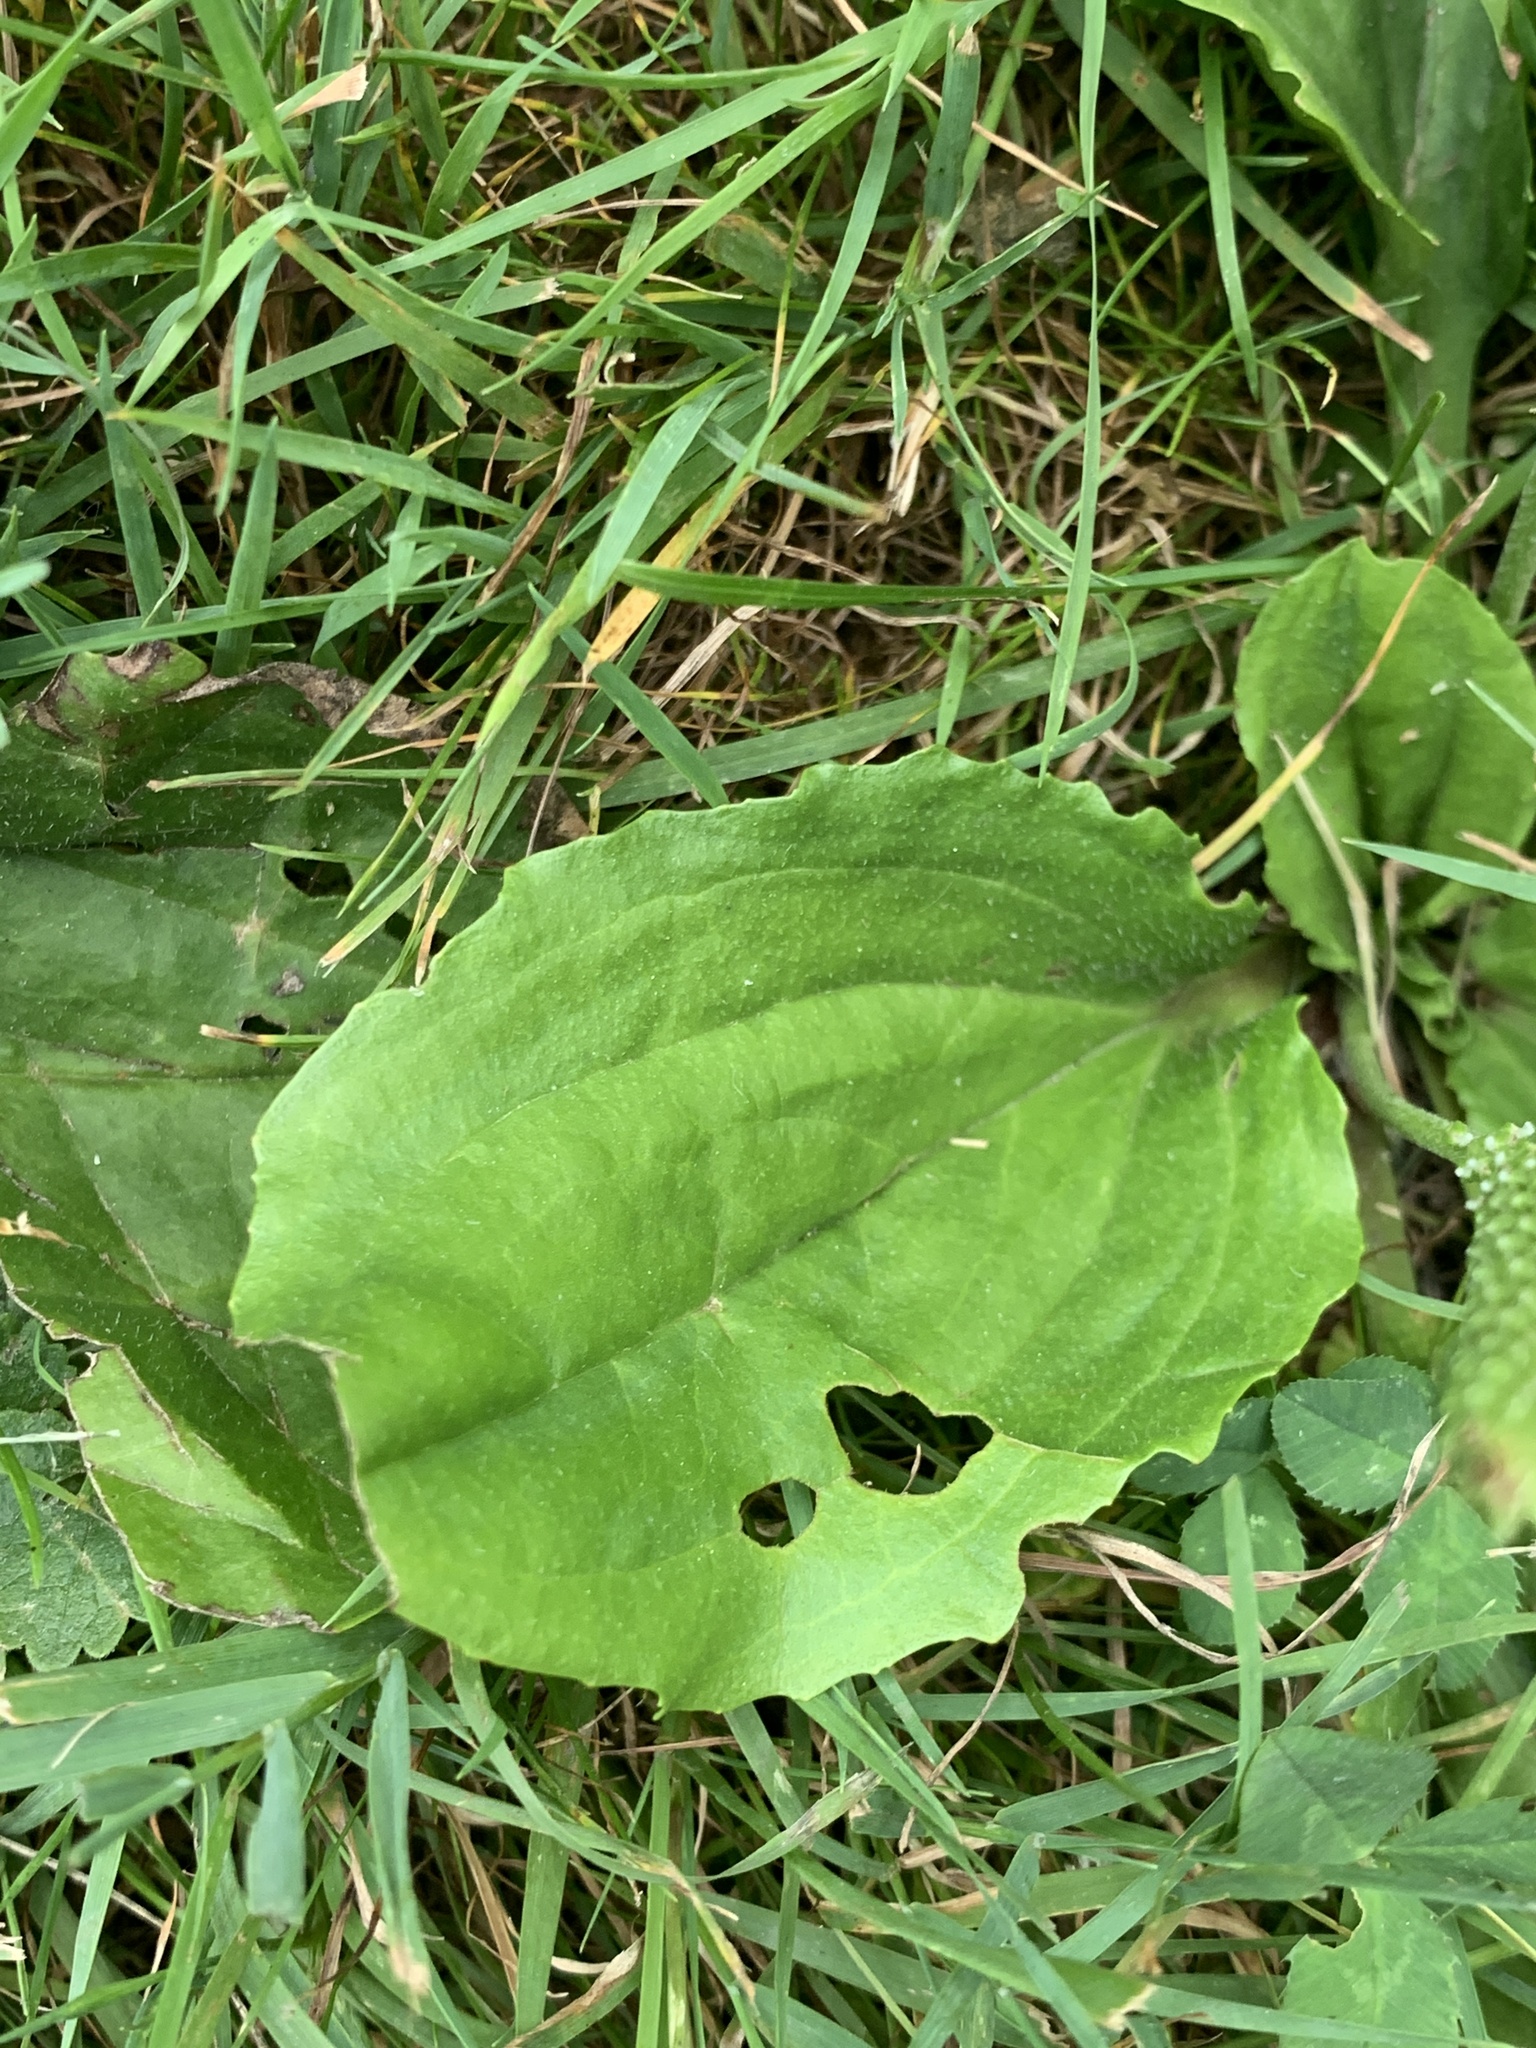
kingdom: Plantae
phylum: Tracheophyta
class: Magnoliopsida
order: Lamiales
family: Plantaginaceae
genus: Plantago
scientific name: Plantago rugelii
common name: American plantain
